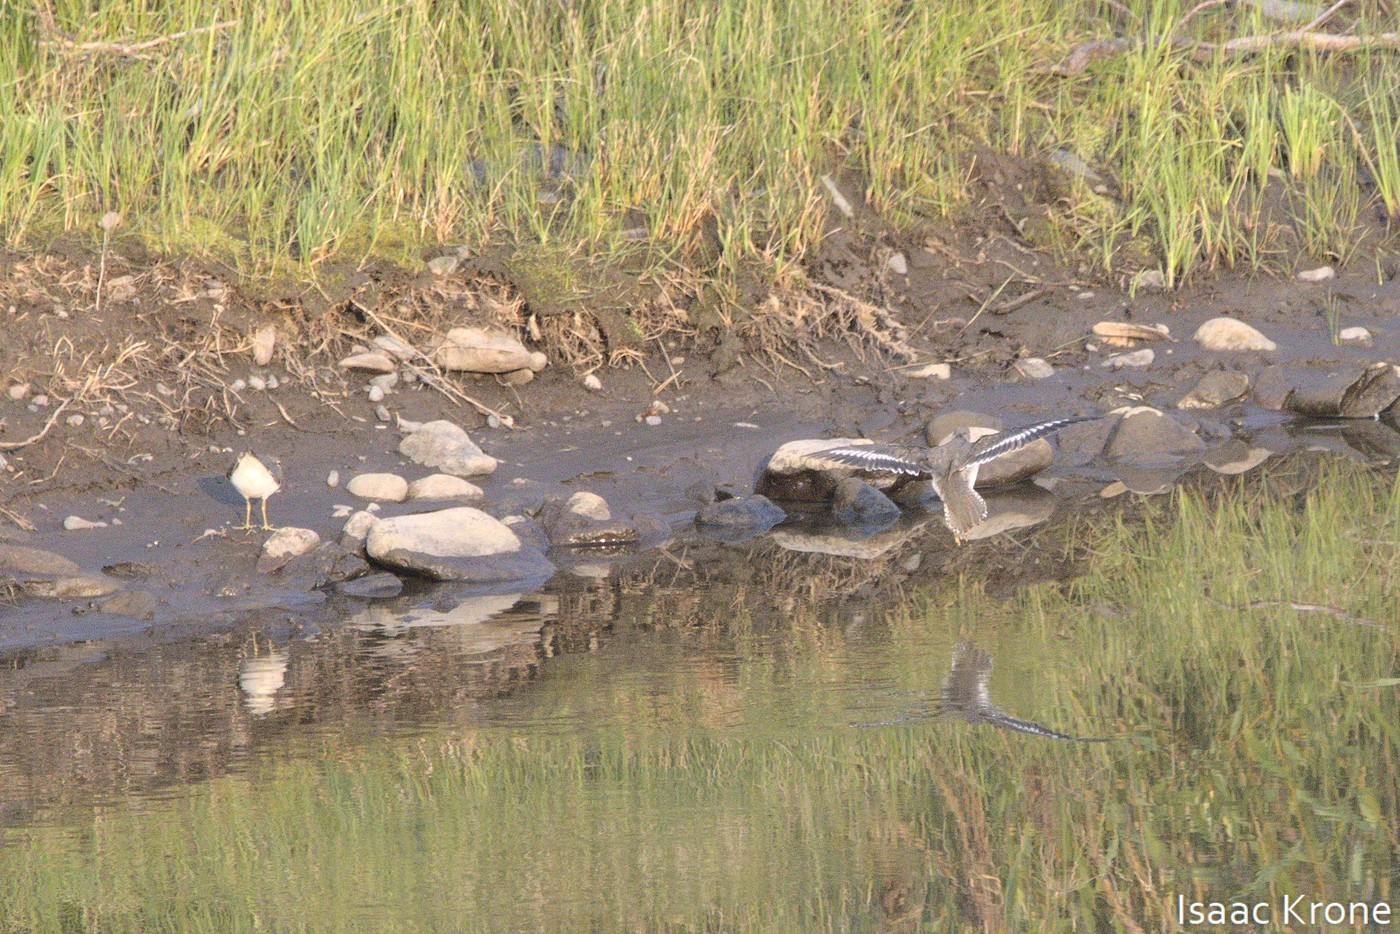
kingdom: Animalia
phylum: Chordata
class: Aves
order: Charadriiformes
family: Scolopacidae
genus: Actitis
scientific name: Actitis macularius
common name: Spotted sandpiper
